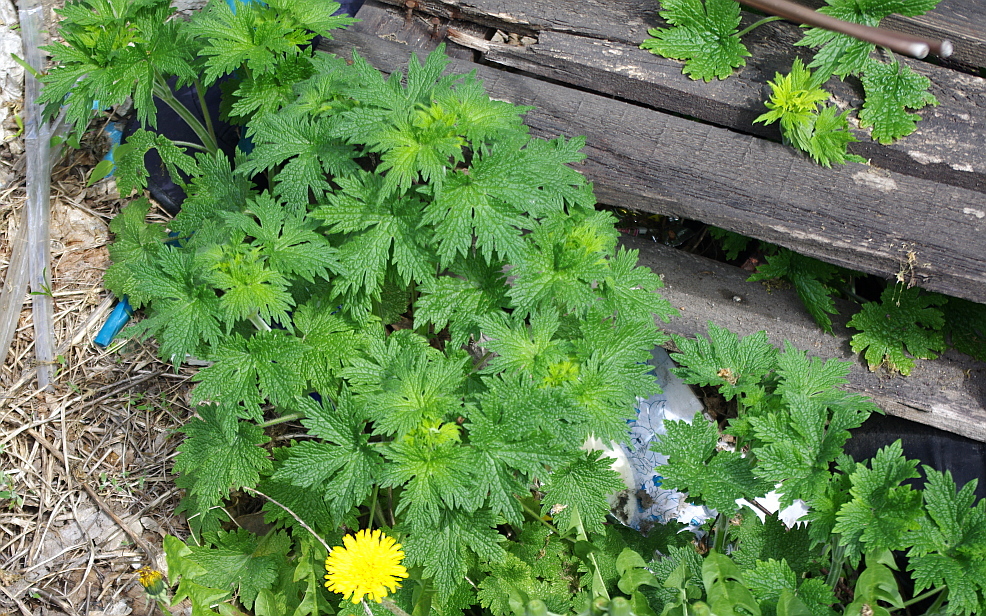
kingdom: Plantae
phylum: Tracheophyta
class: Magnoliopsida
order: Lamiales
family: Lamiaceae
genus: Leonurus
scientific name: Leonurus quinquelobatus
